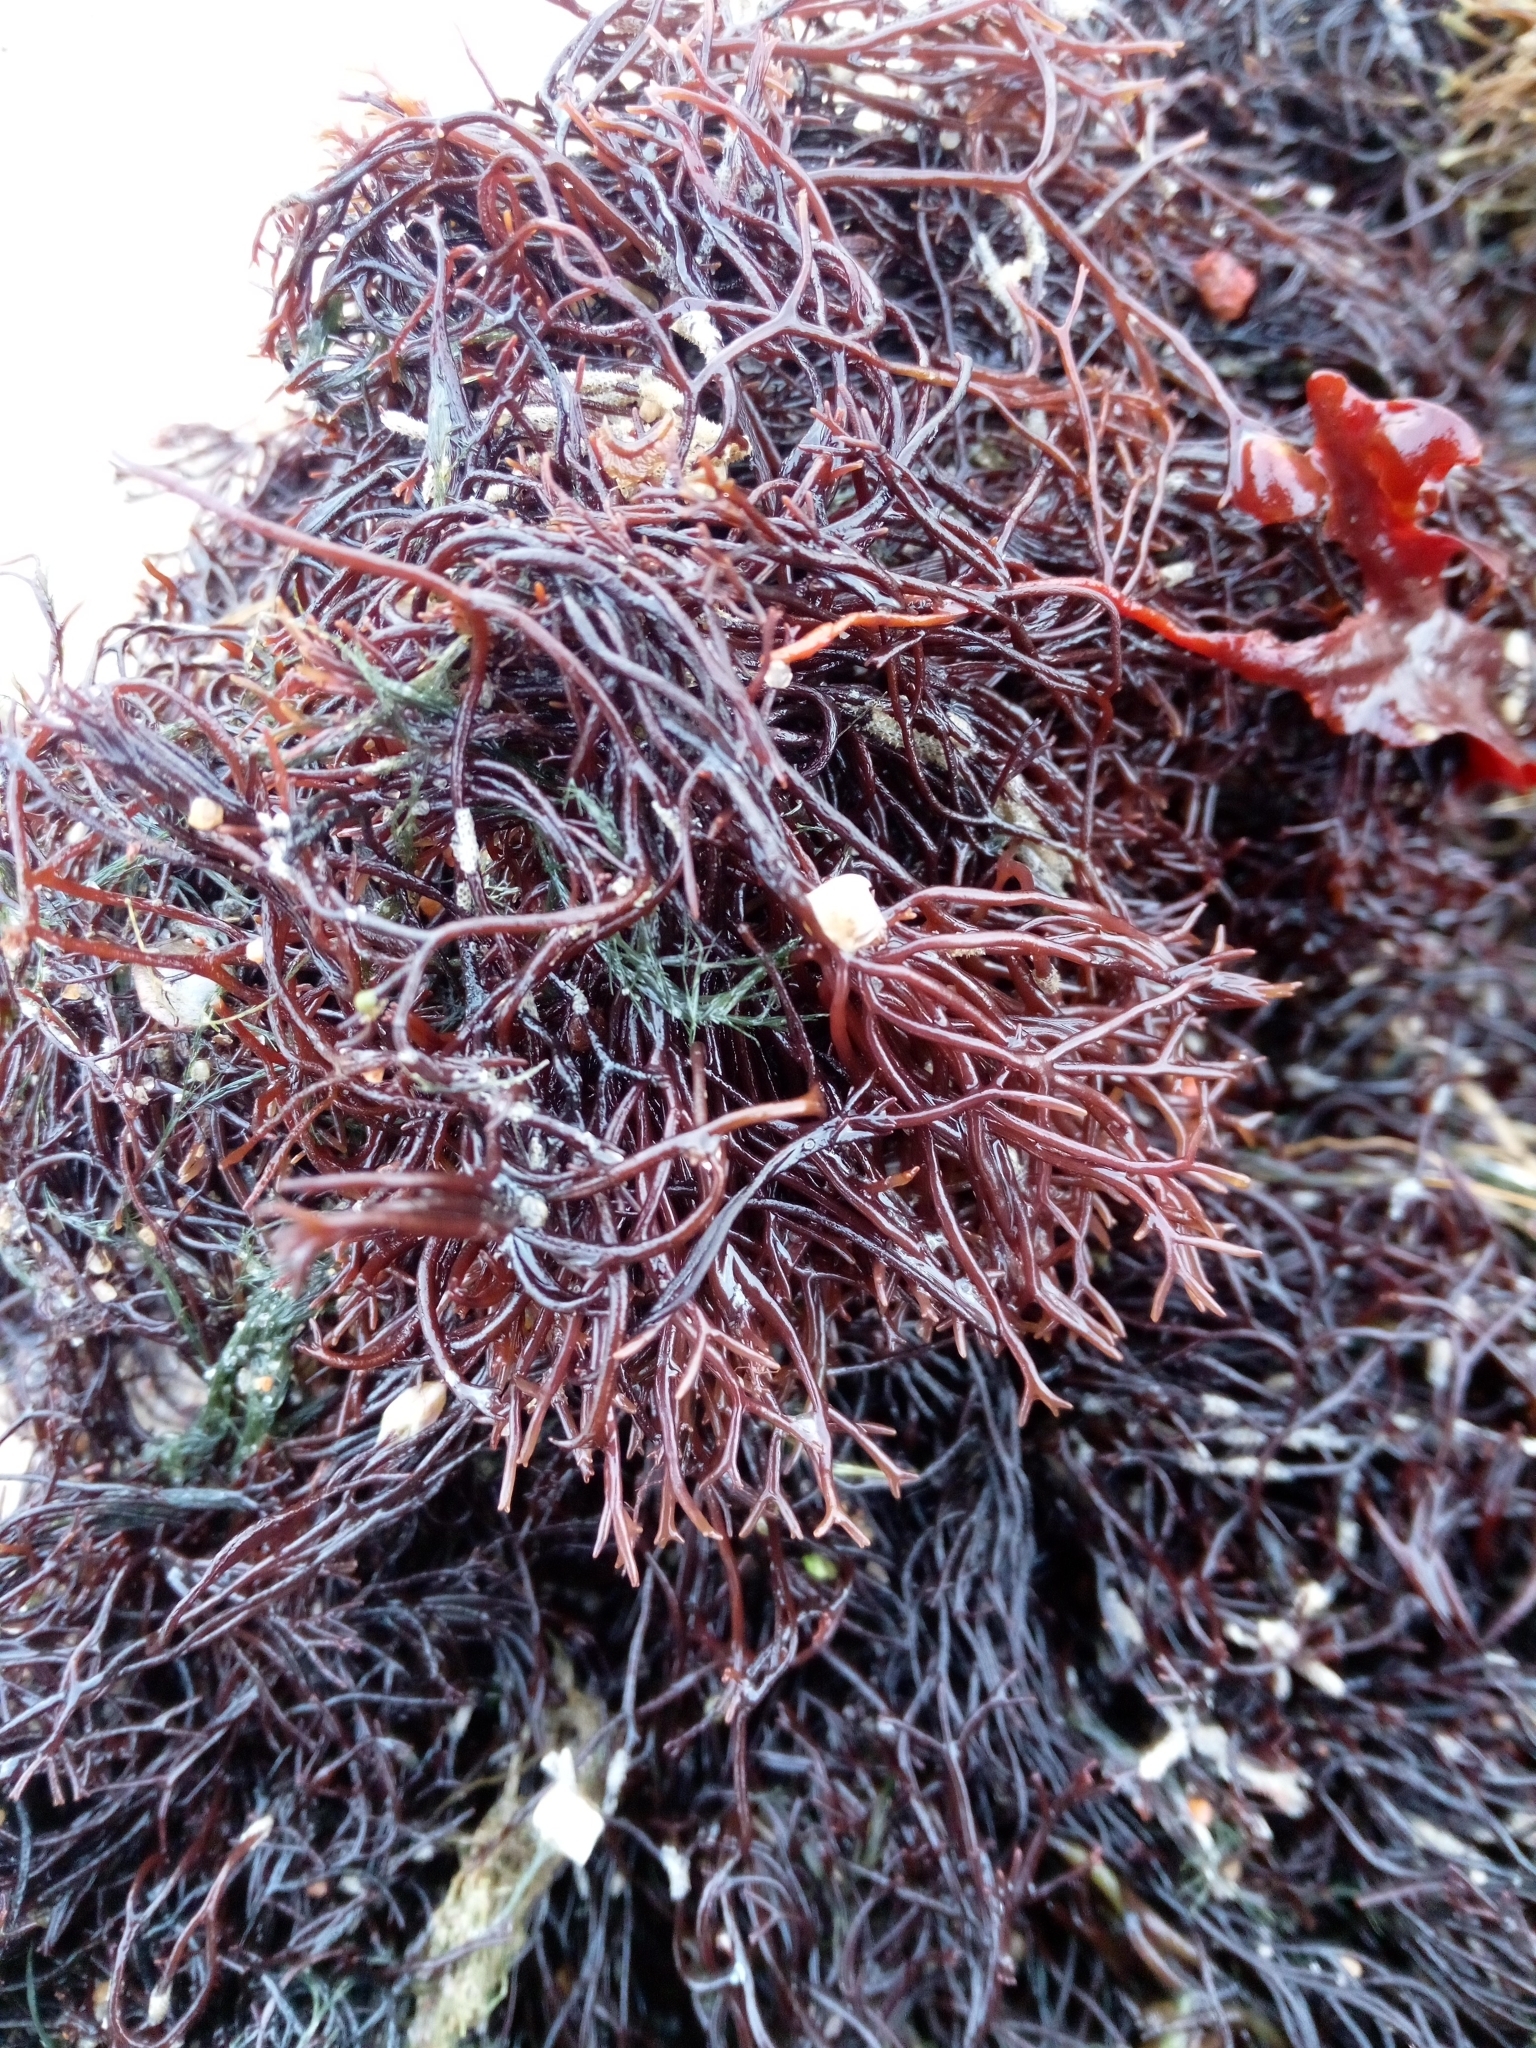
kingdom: Plantae
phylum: Rhodophyta
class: Florideophyceae
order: Gigartinales
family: Furcellariaceae
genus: Furcellaria
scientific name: Furcellaria lumbricalis
